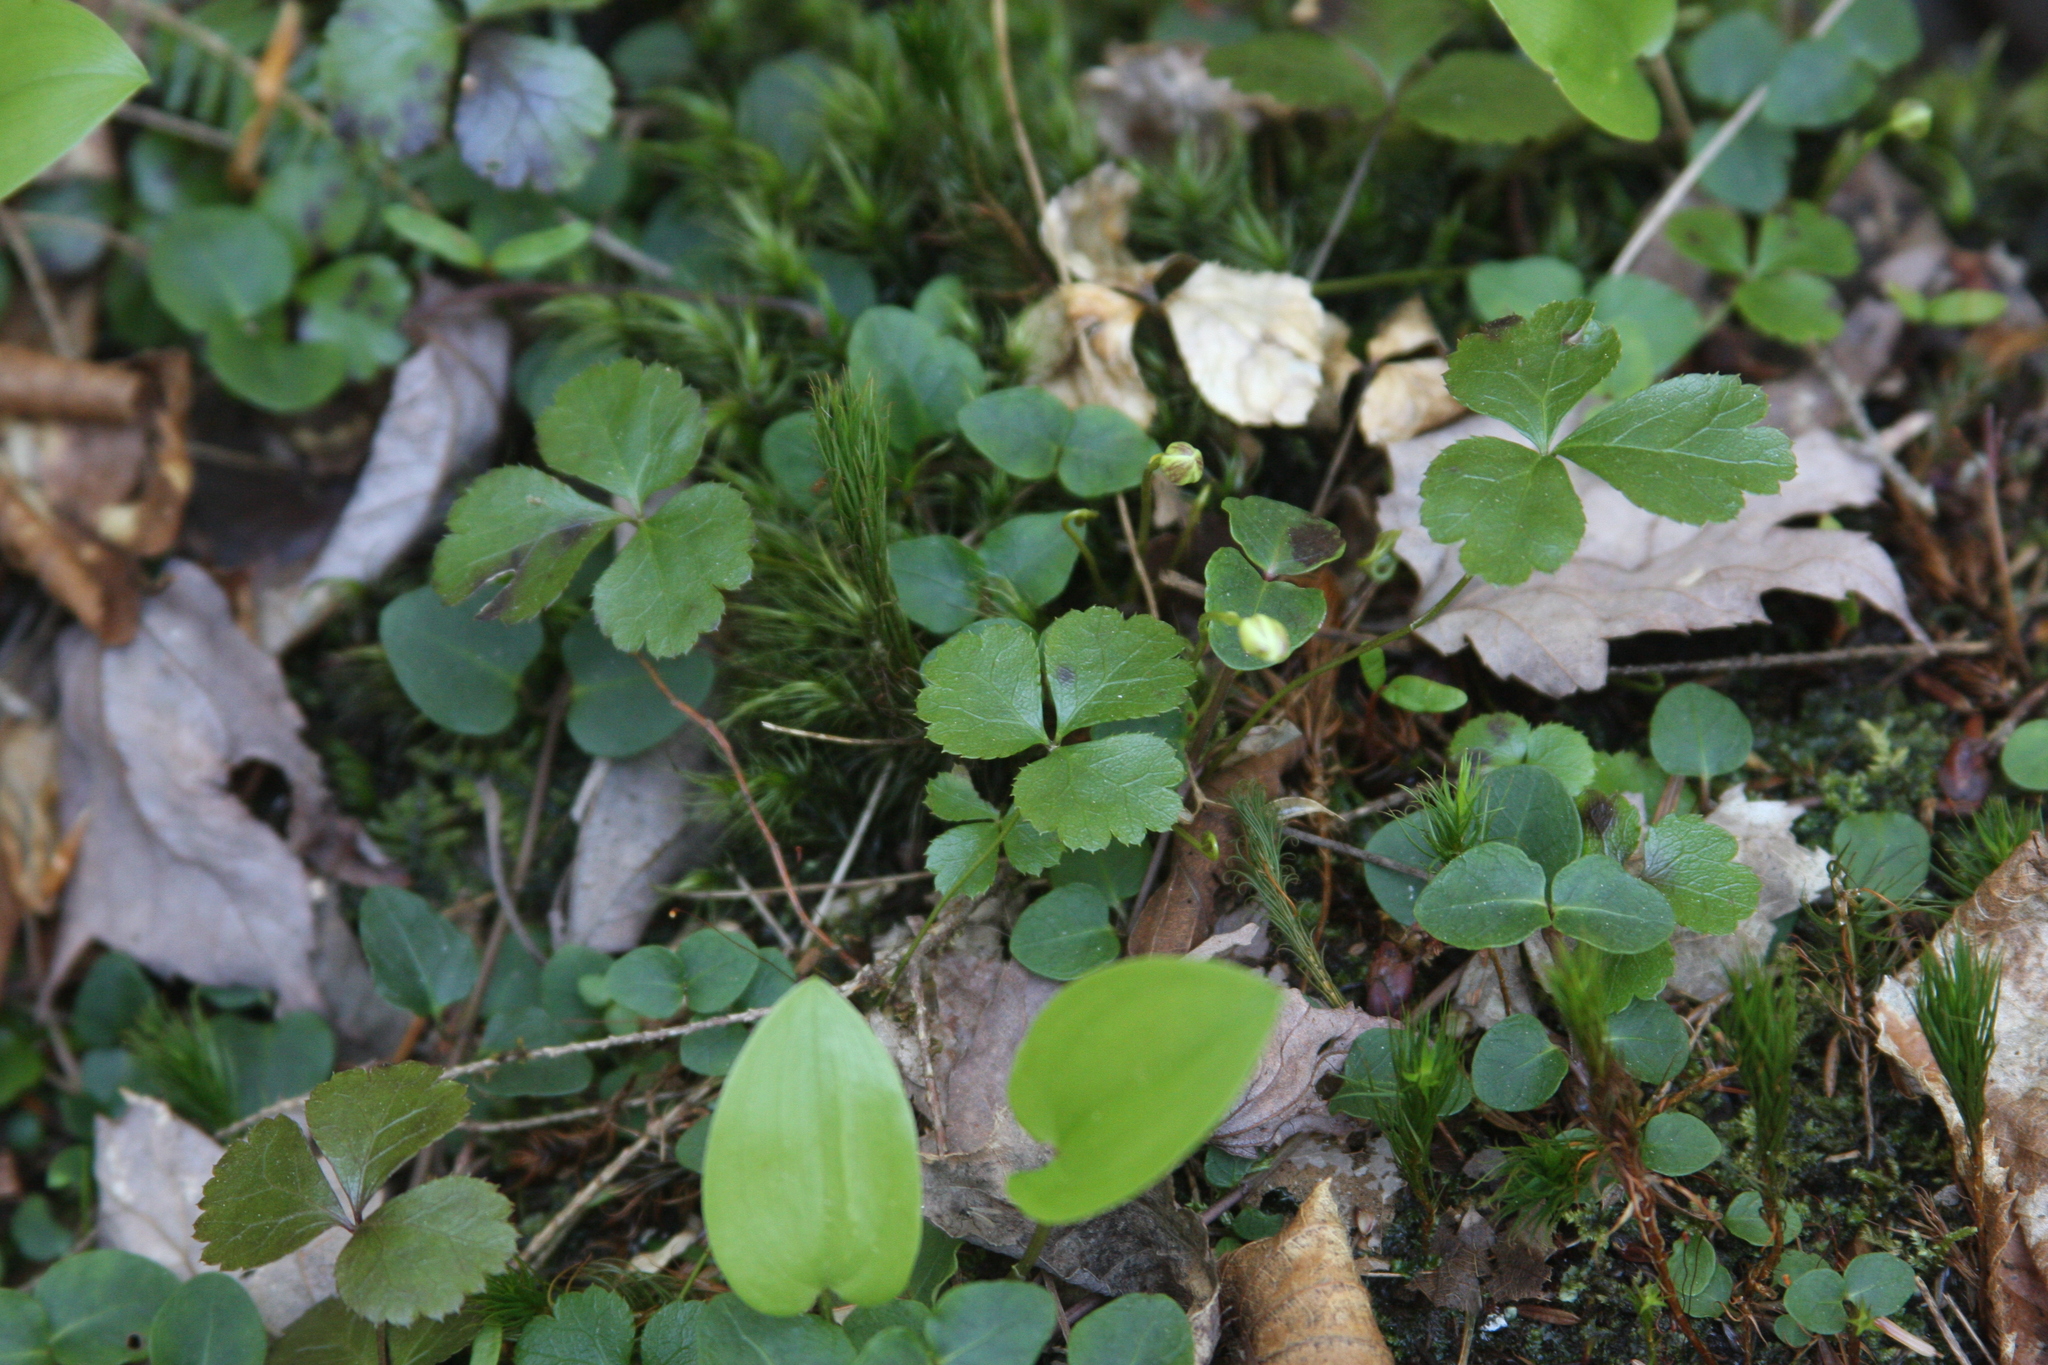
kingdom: Plantae
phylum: Tracheophyta
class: Magnoliopsida
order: Ranunculales
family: Ranunculaceae
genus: Coptis
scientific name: Coptis trifolia
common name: Canker-root
